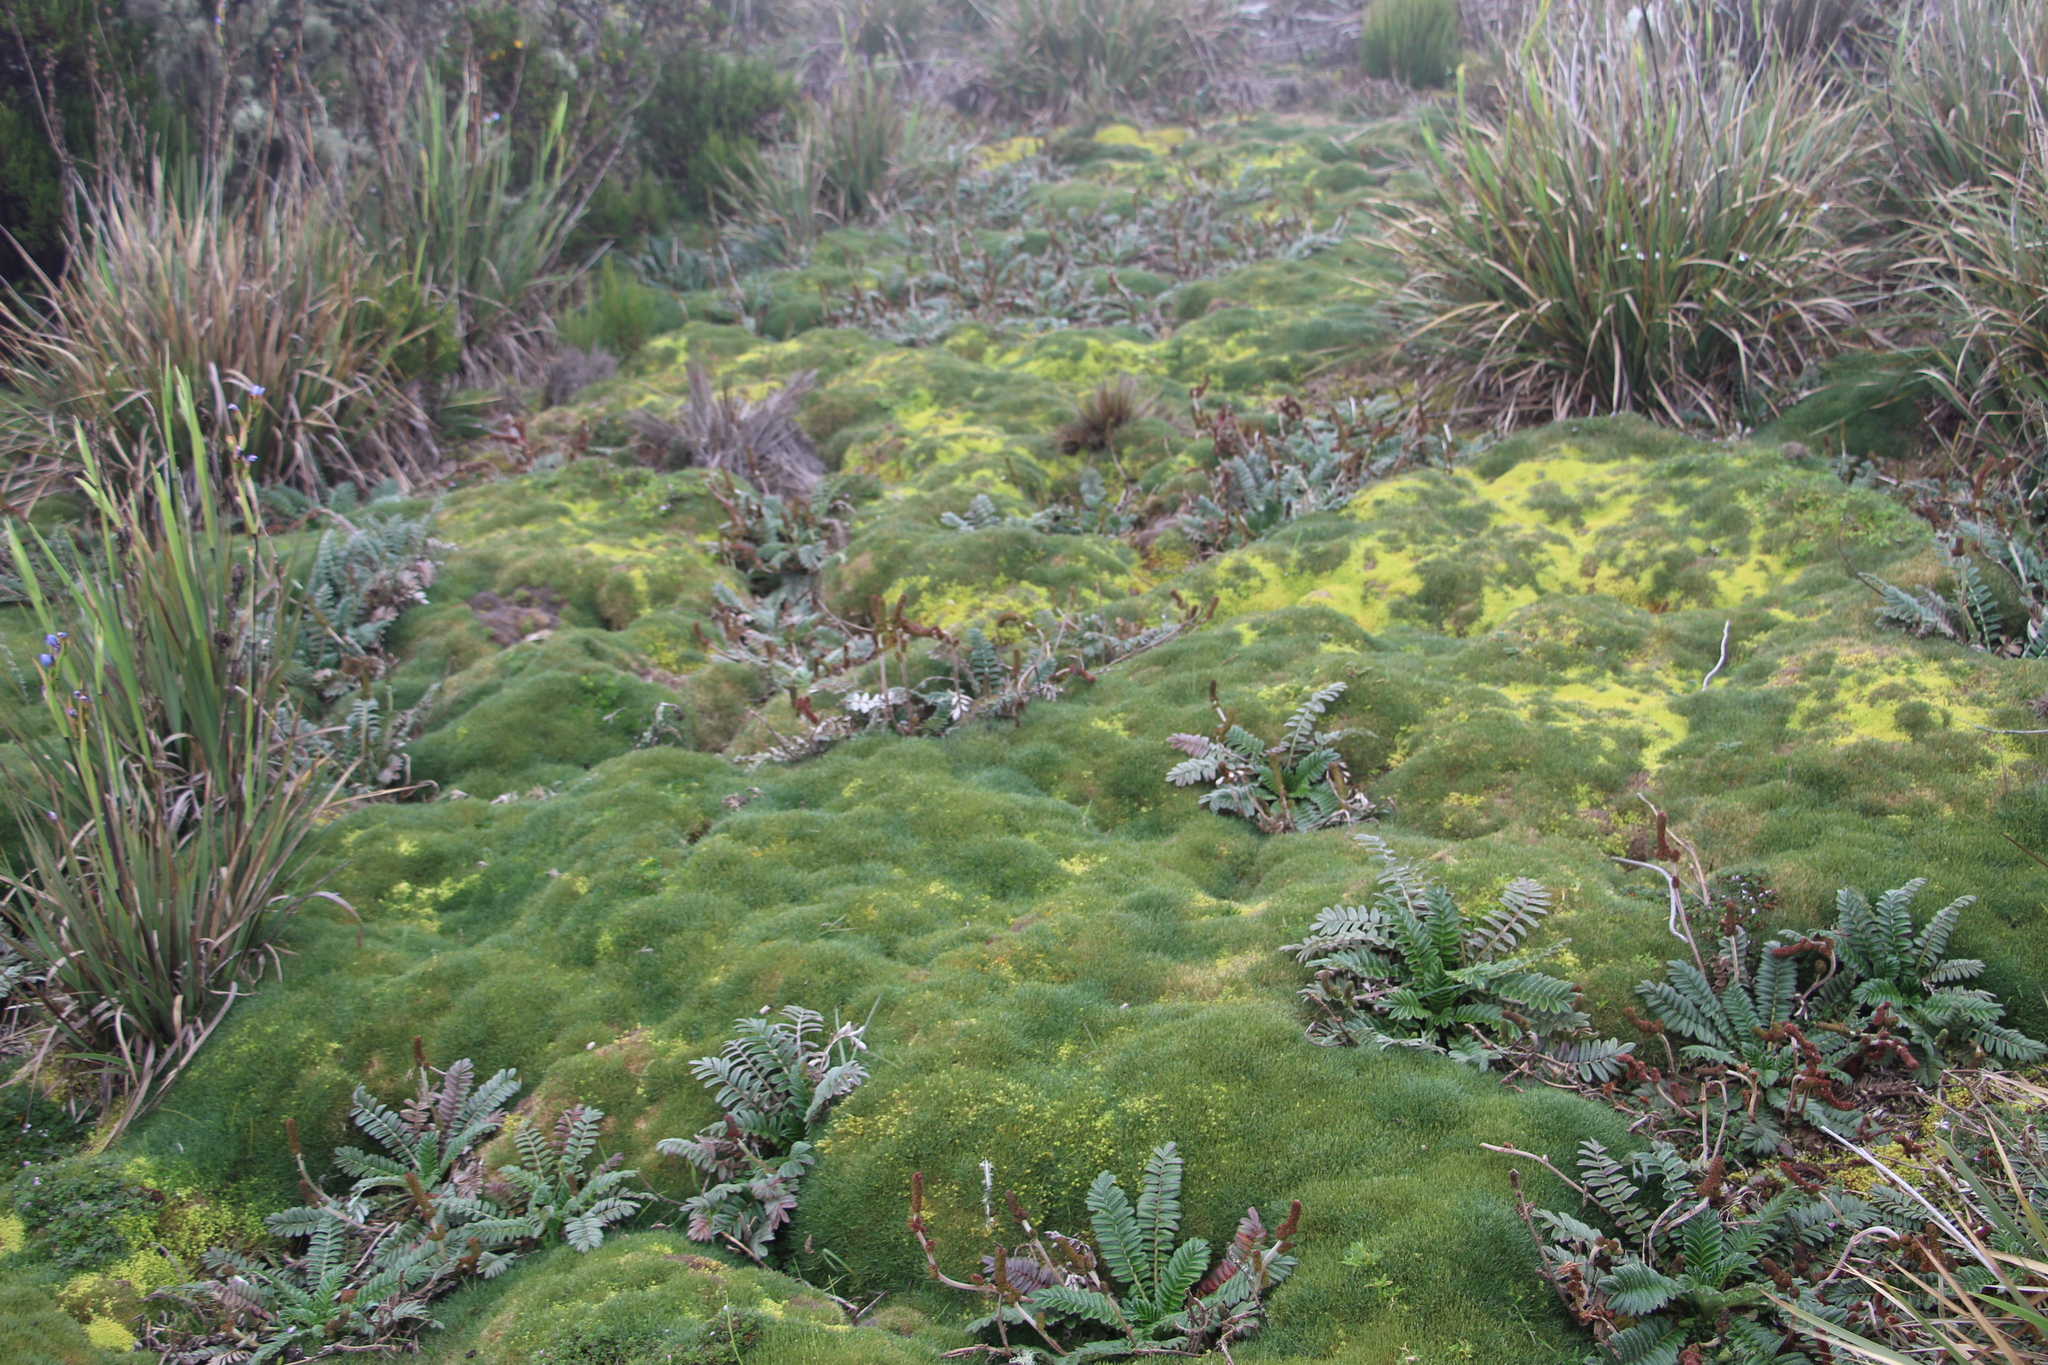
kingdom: Plantae
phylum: Tracheophyta
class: Magnoliopsida
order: Rosales
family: Rosaceae
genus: Acaena
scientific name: Acaena cylindristachya
